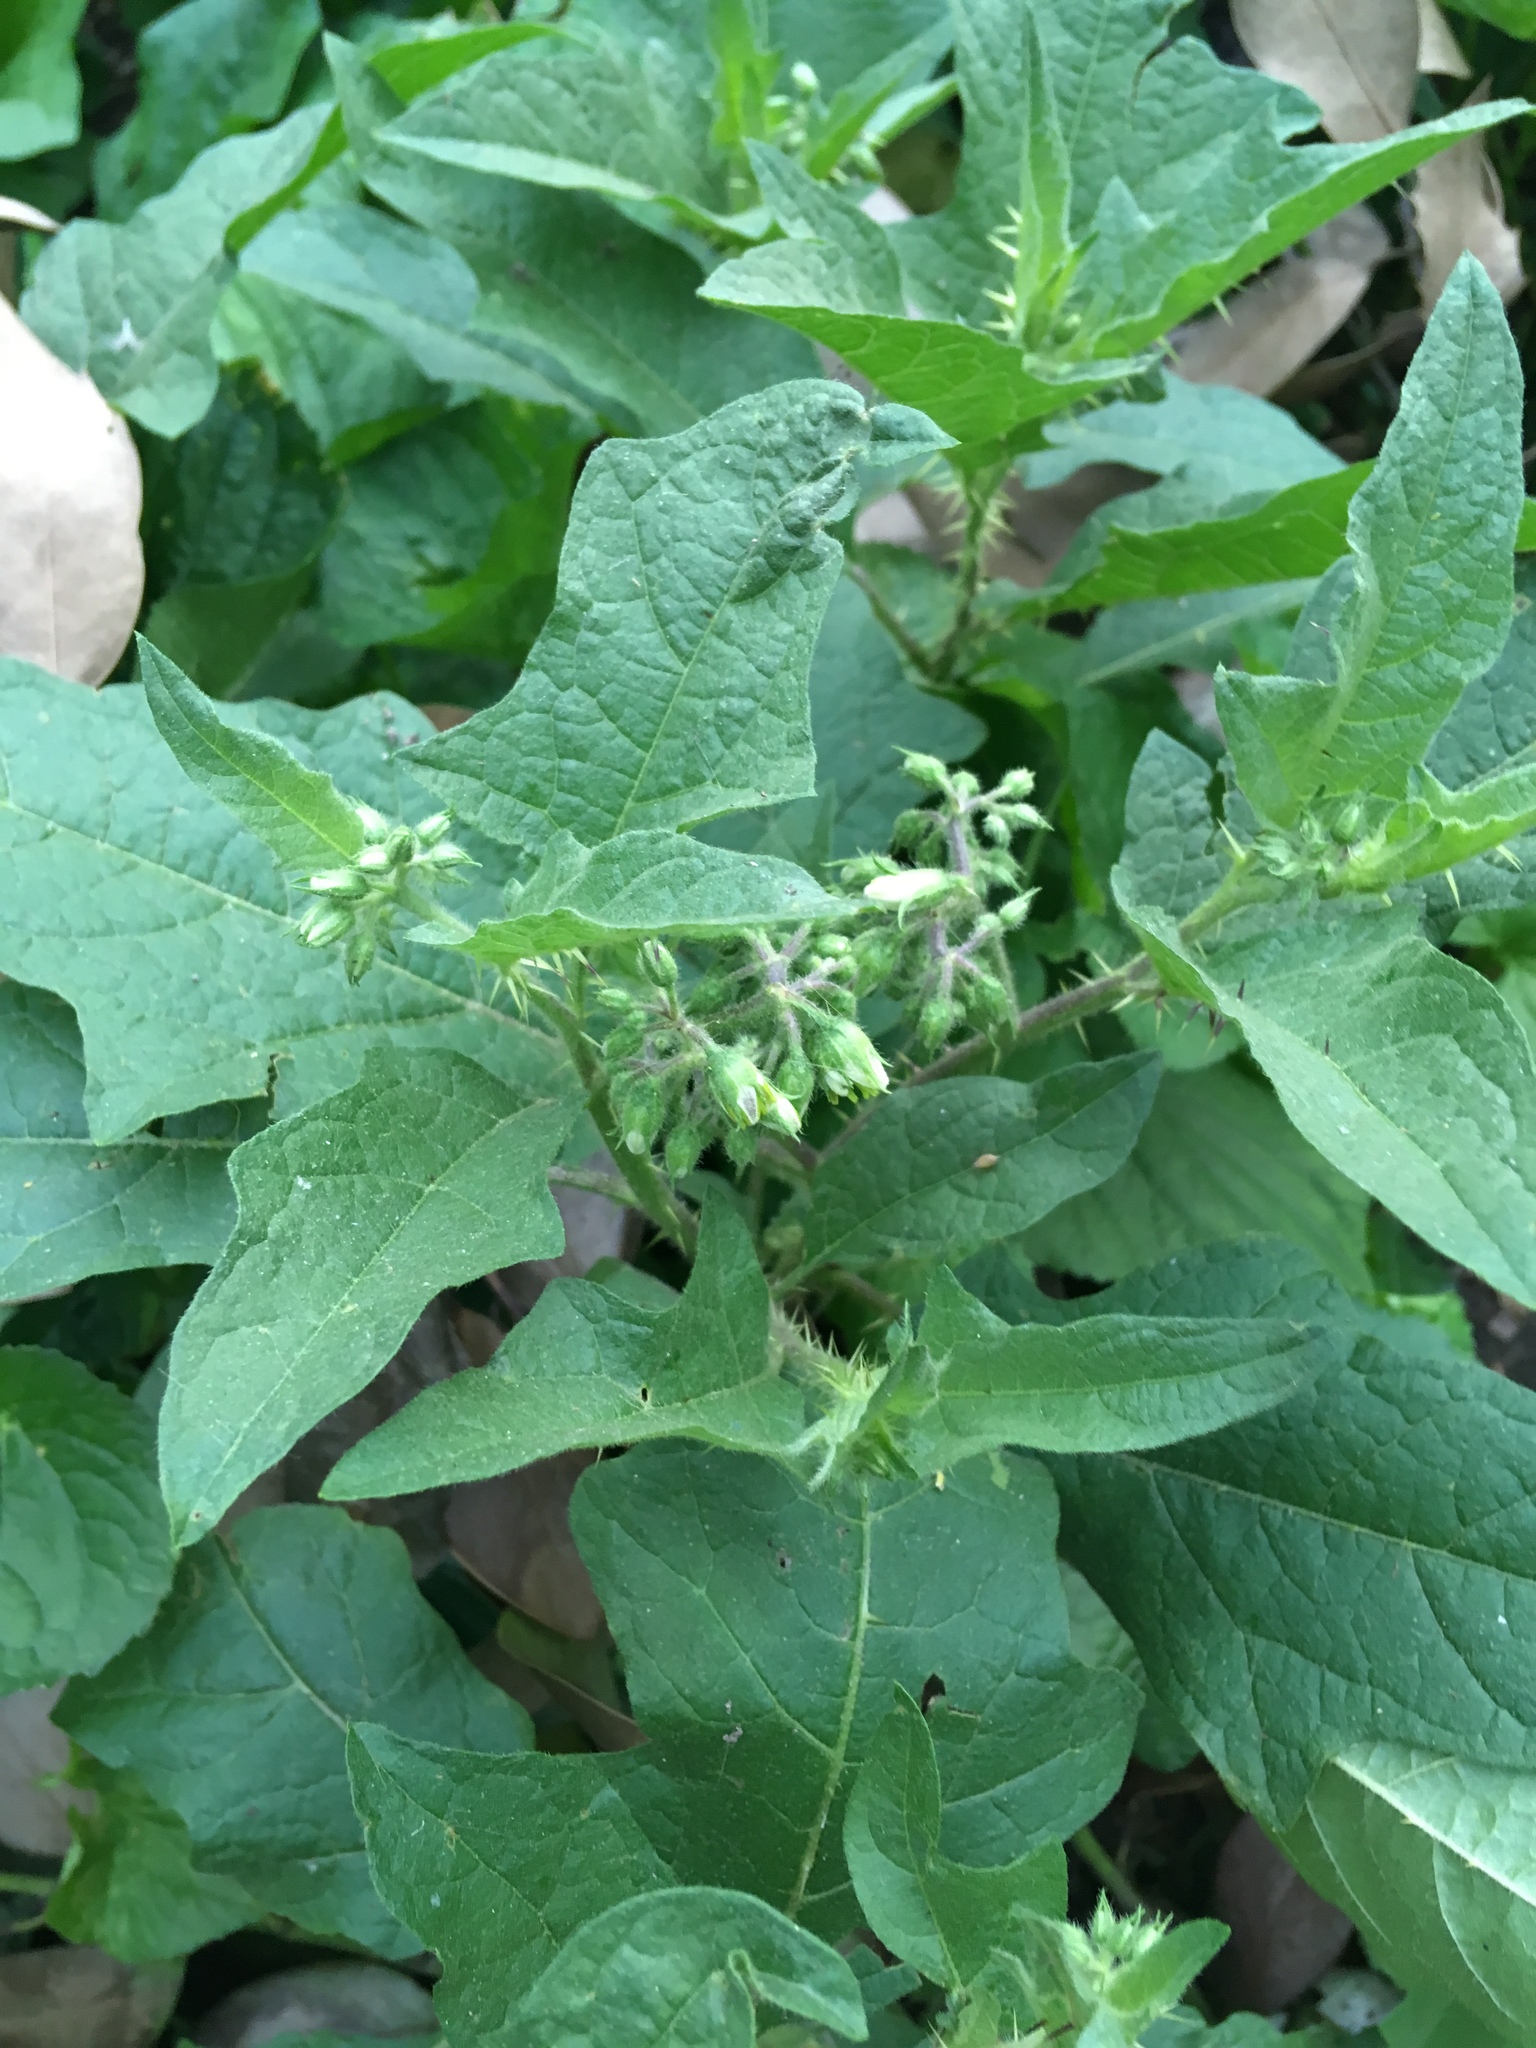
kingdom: Plantae
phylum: Tracheophyta
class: Magnoliopsida
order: Solanales
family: Solanaceae
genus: Solanum
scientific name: Solanum carolinense
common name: Horse-nettle
